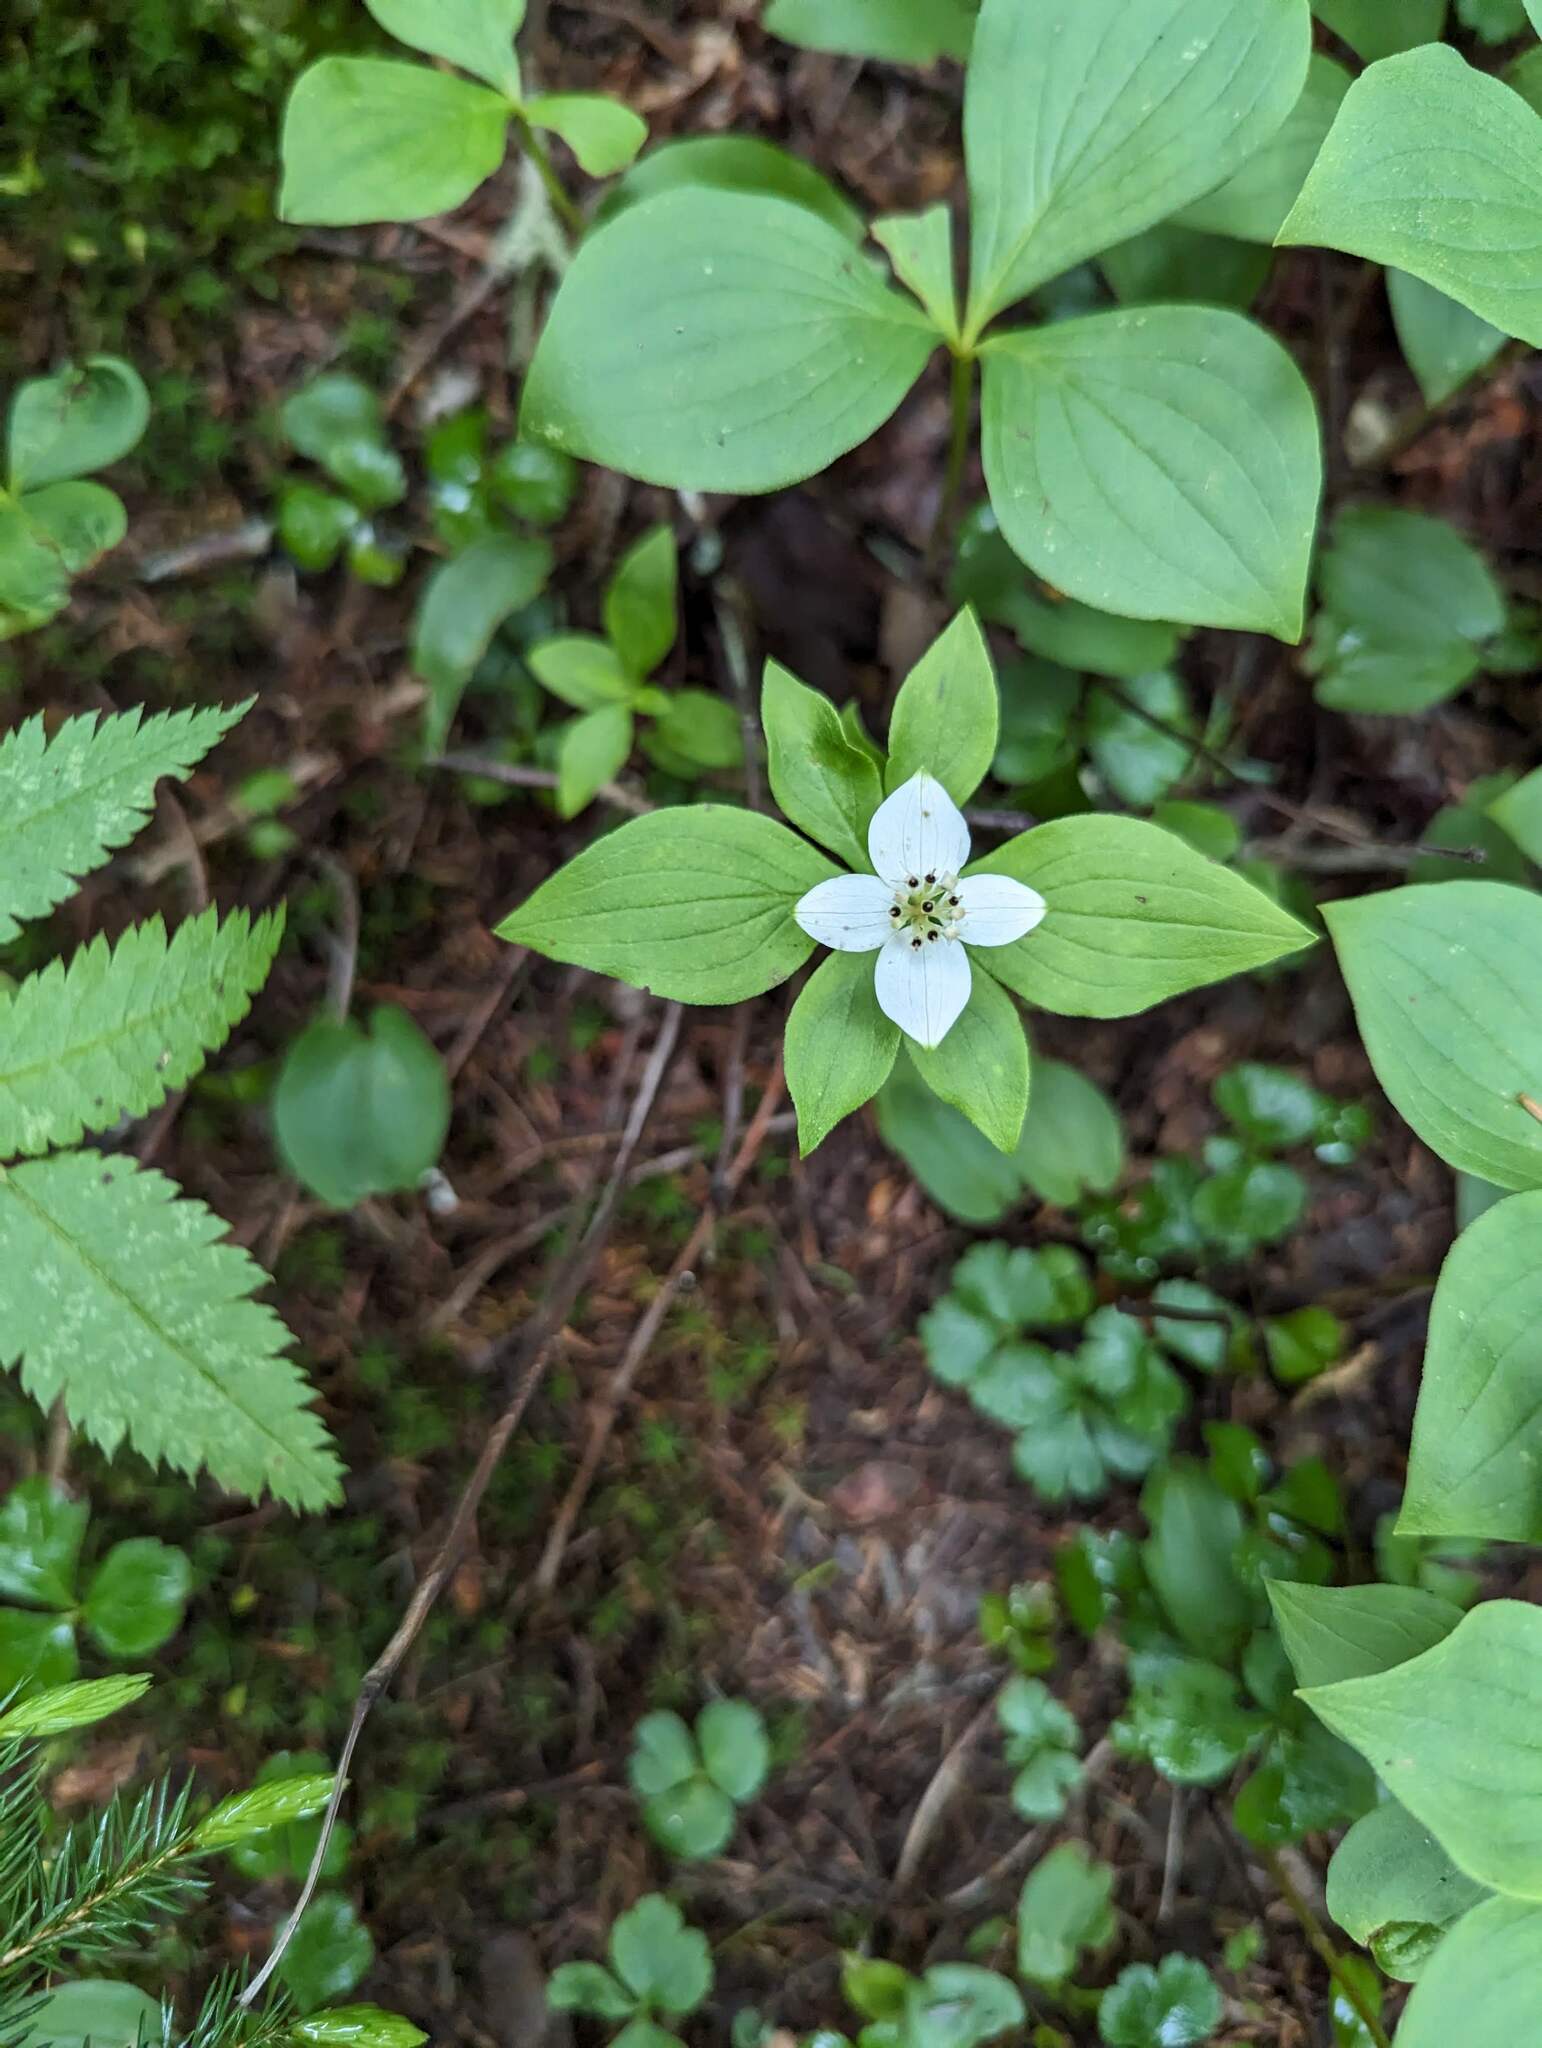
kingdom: Plantae
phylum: Tracheophyta
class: Magnoliopsida
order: Cornales
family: Cornaceae
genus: Cornus
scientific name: Cornus canadensis
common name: Creeping dogwood
